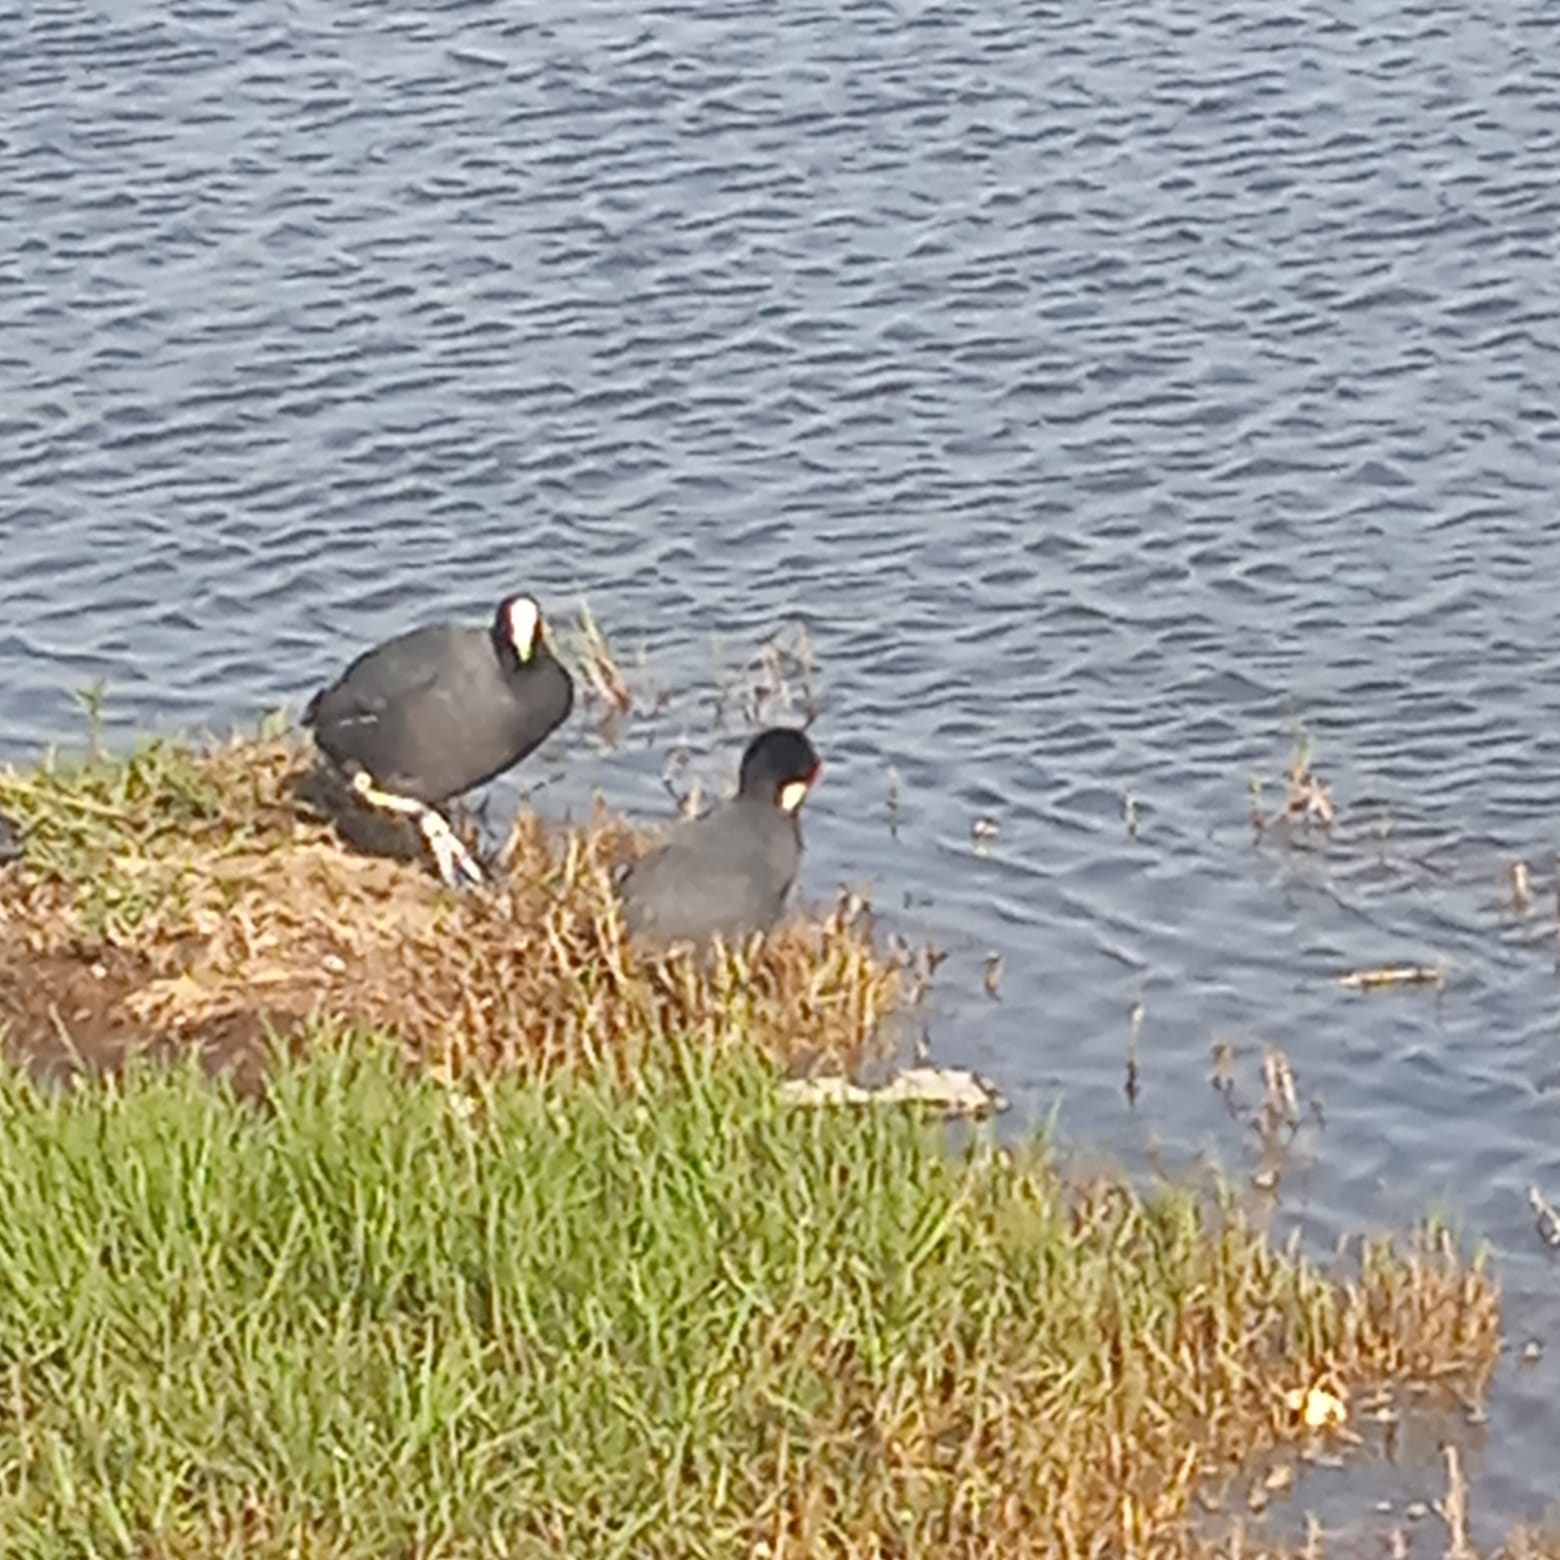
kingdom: Animalia
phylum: Chordata
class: Aves
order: Gruiformes
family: Rallidae
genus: Fulica
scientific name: Fulica ardesiaca
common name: Andean coot
